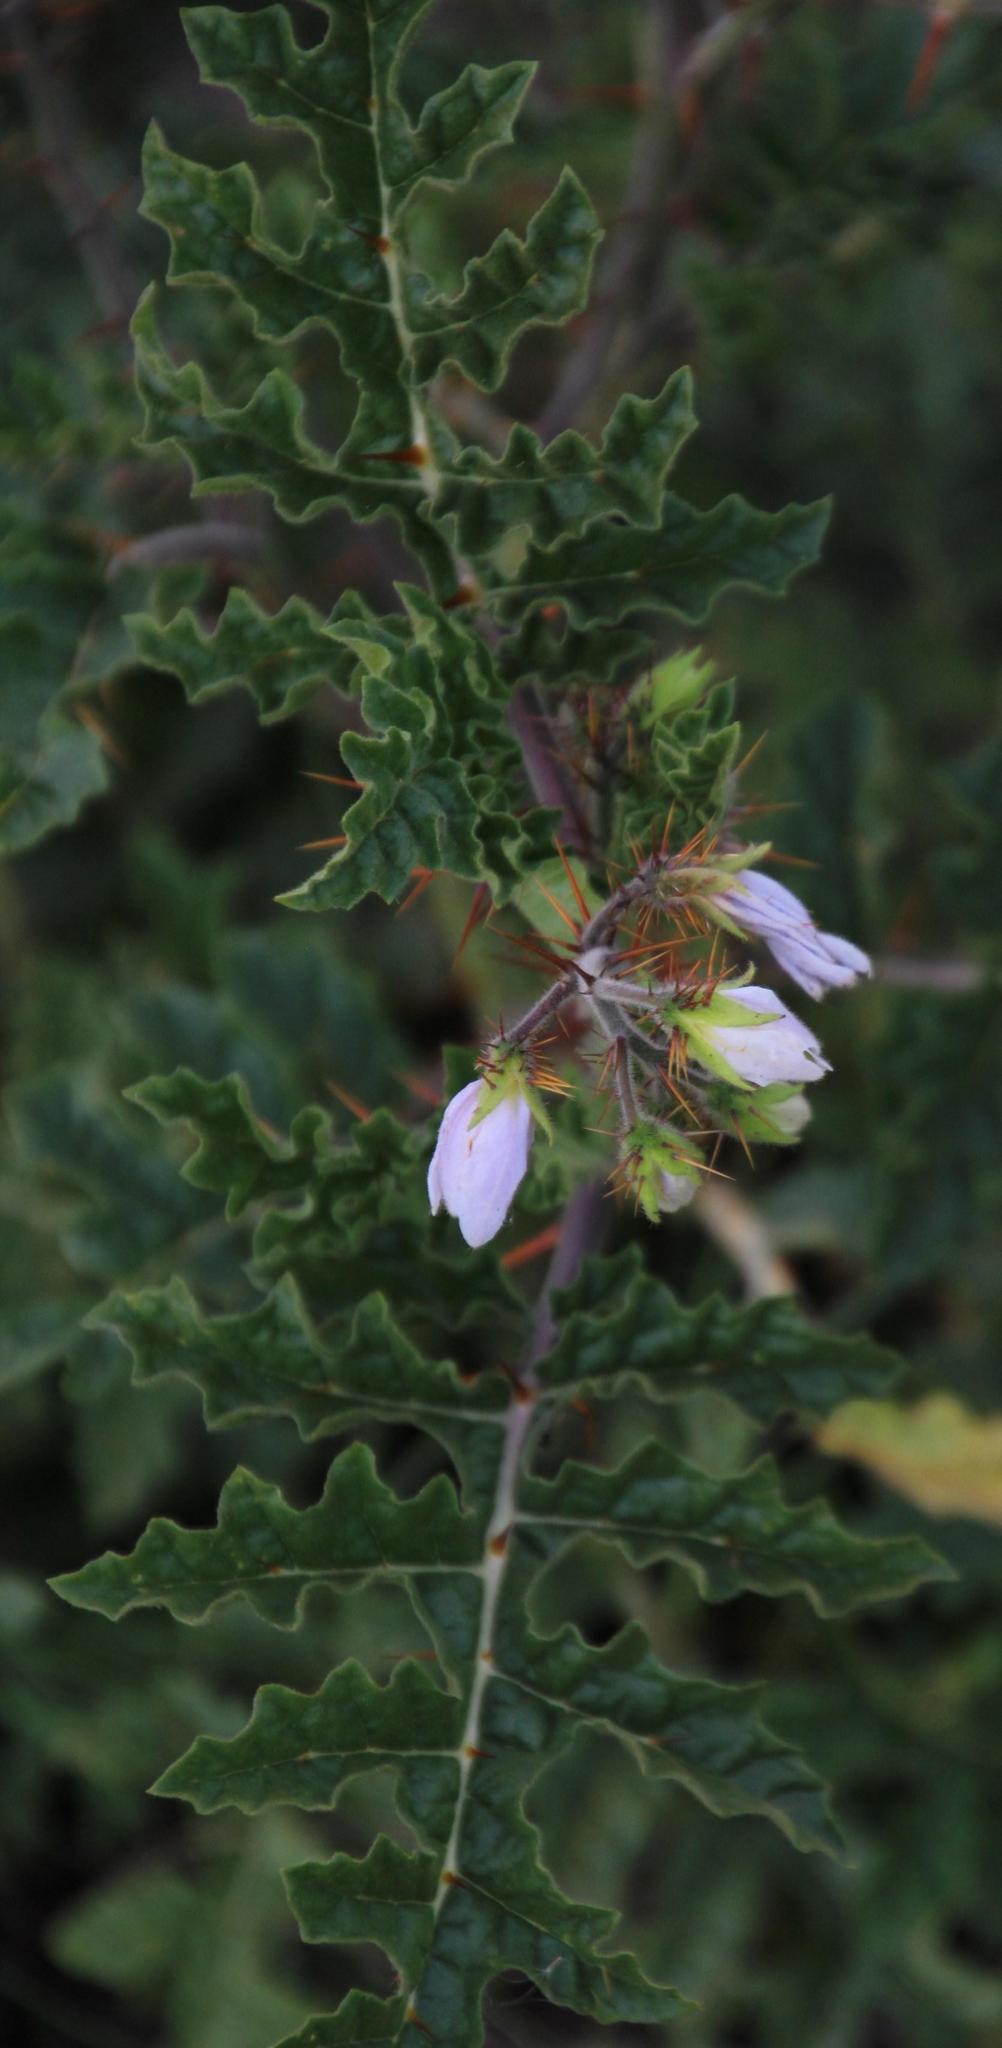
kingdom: Plantae
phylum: Tracheophyta
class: Magnoliopsida
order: Solanales
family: Solanaceae
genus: Solanum
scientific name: Solanum sisymbriifolium
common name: Red buffalo-bur
